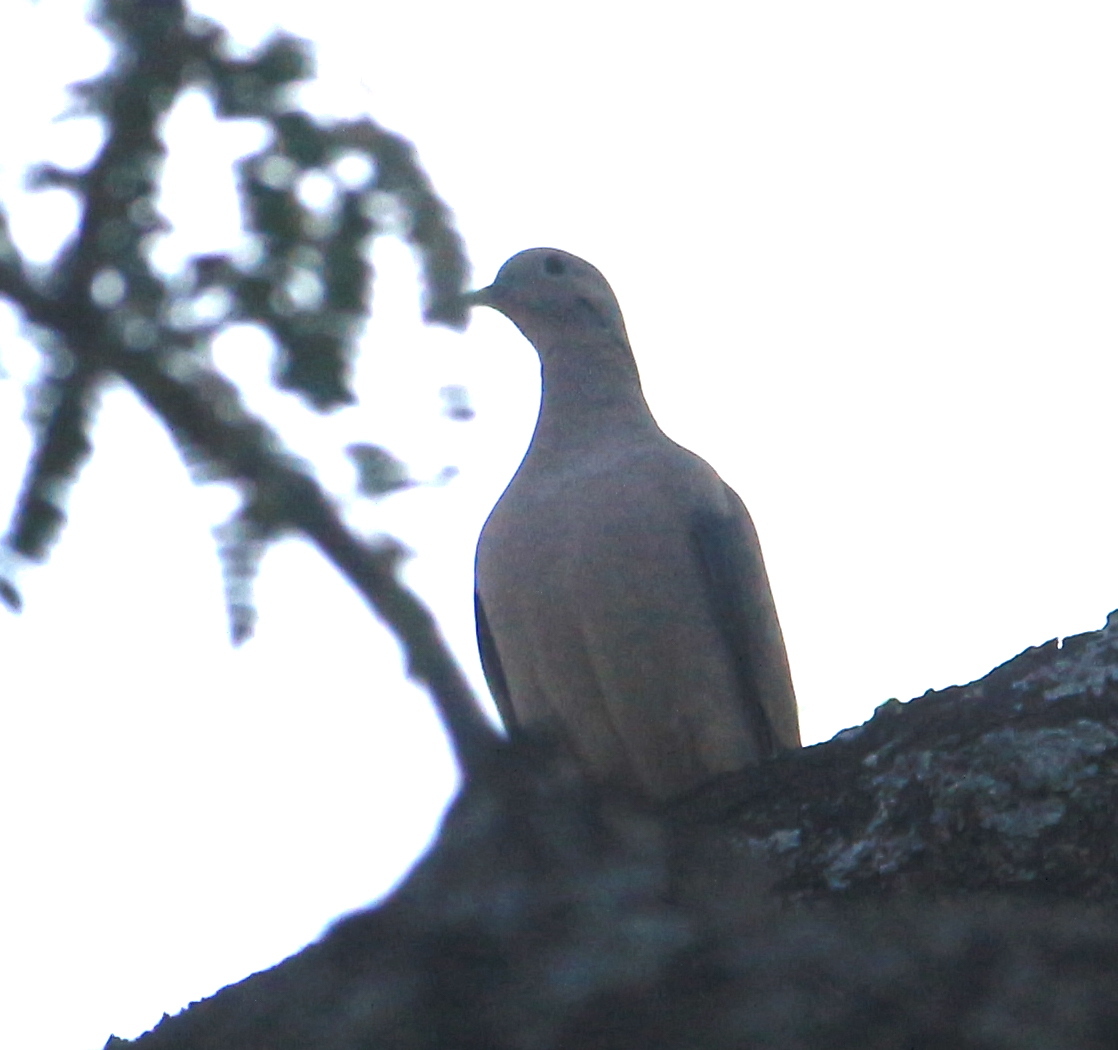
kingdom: Animalia
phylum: Chordata
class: Aves
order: Columbiformes
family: Columbidae
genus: Zenaida
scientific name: Zenaida auriculata
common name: Eared dove
